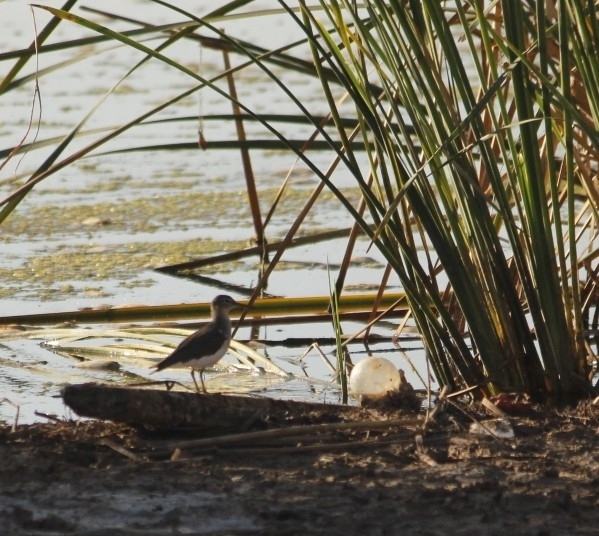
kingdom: Animalia
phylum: Chordata
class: Aves
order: Charadriiformes
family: Scolopacidae
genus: Actitis
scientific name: Actitis macularius
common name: Spotted sandpiper
